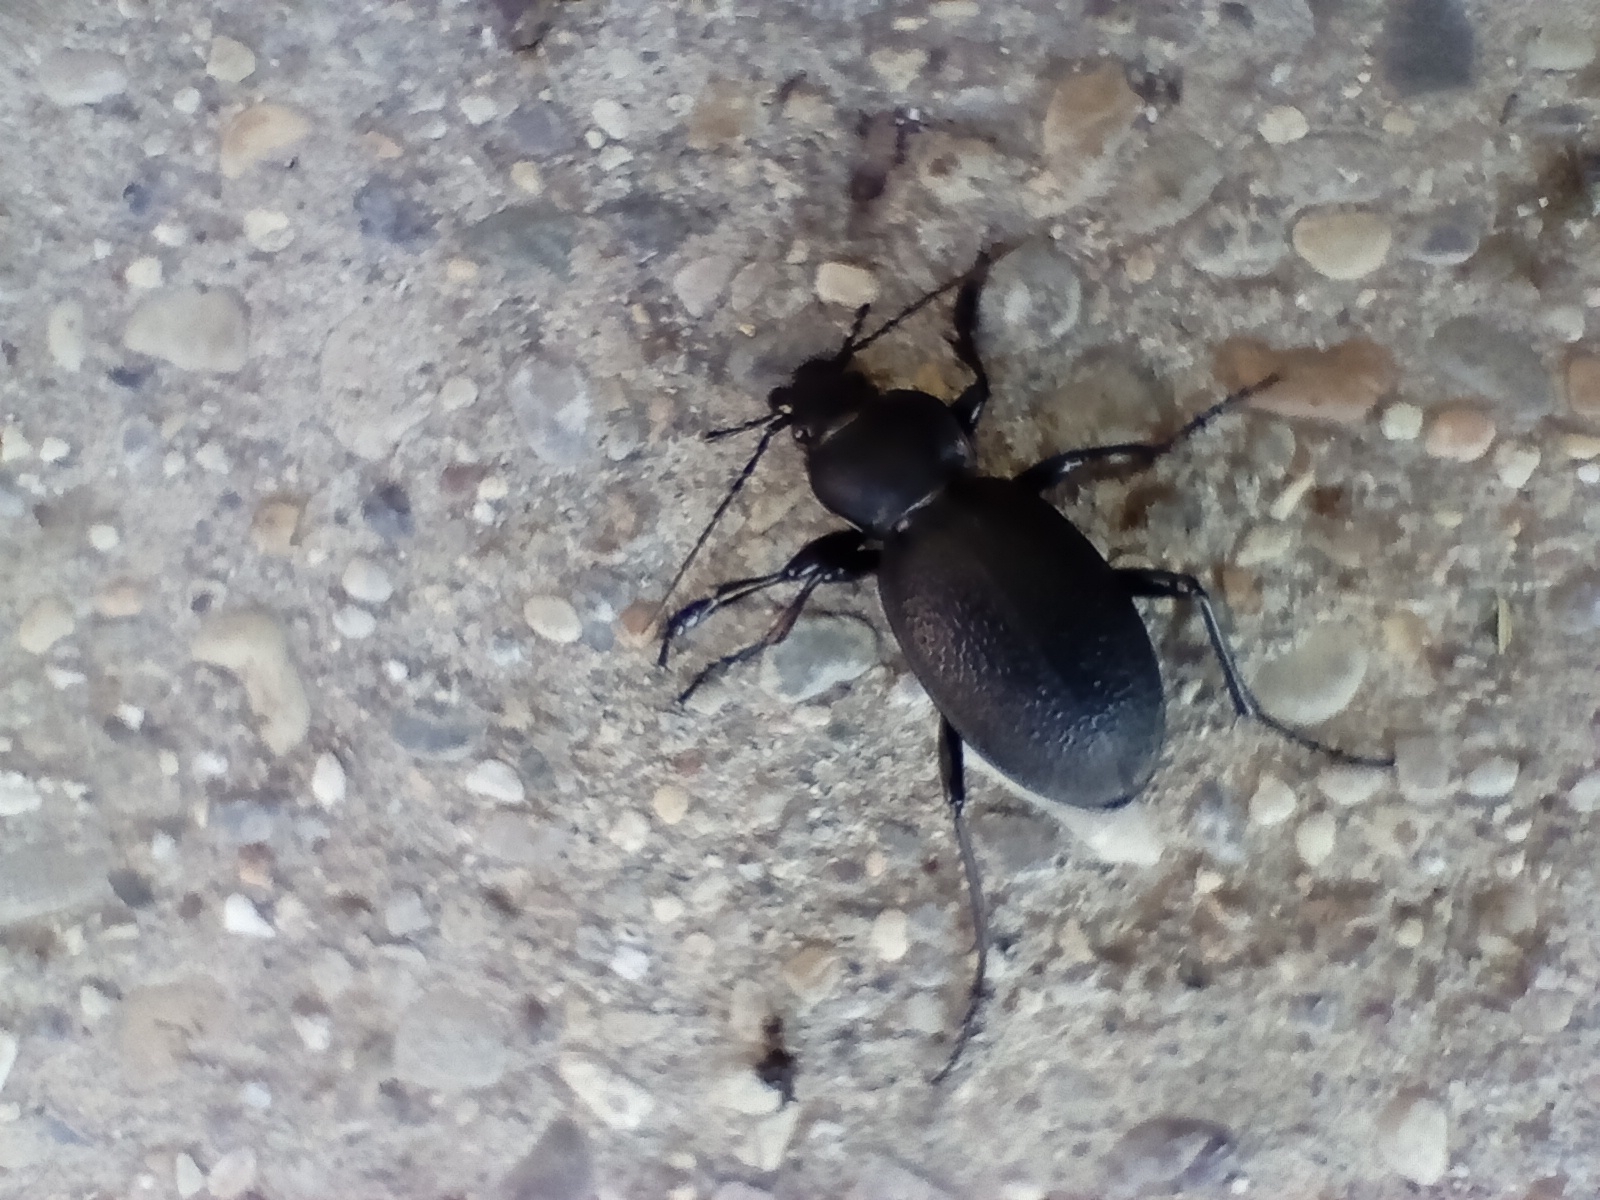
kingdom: Animalia
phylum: Arthropoda
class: Insecta
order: Coleoptera
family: Carabidae
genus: Carabus
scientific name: Carabus coriaceus
